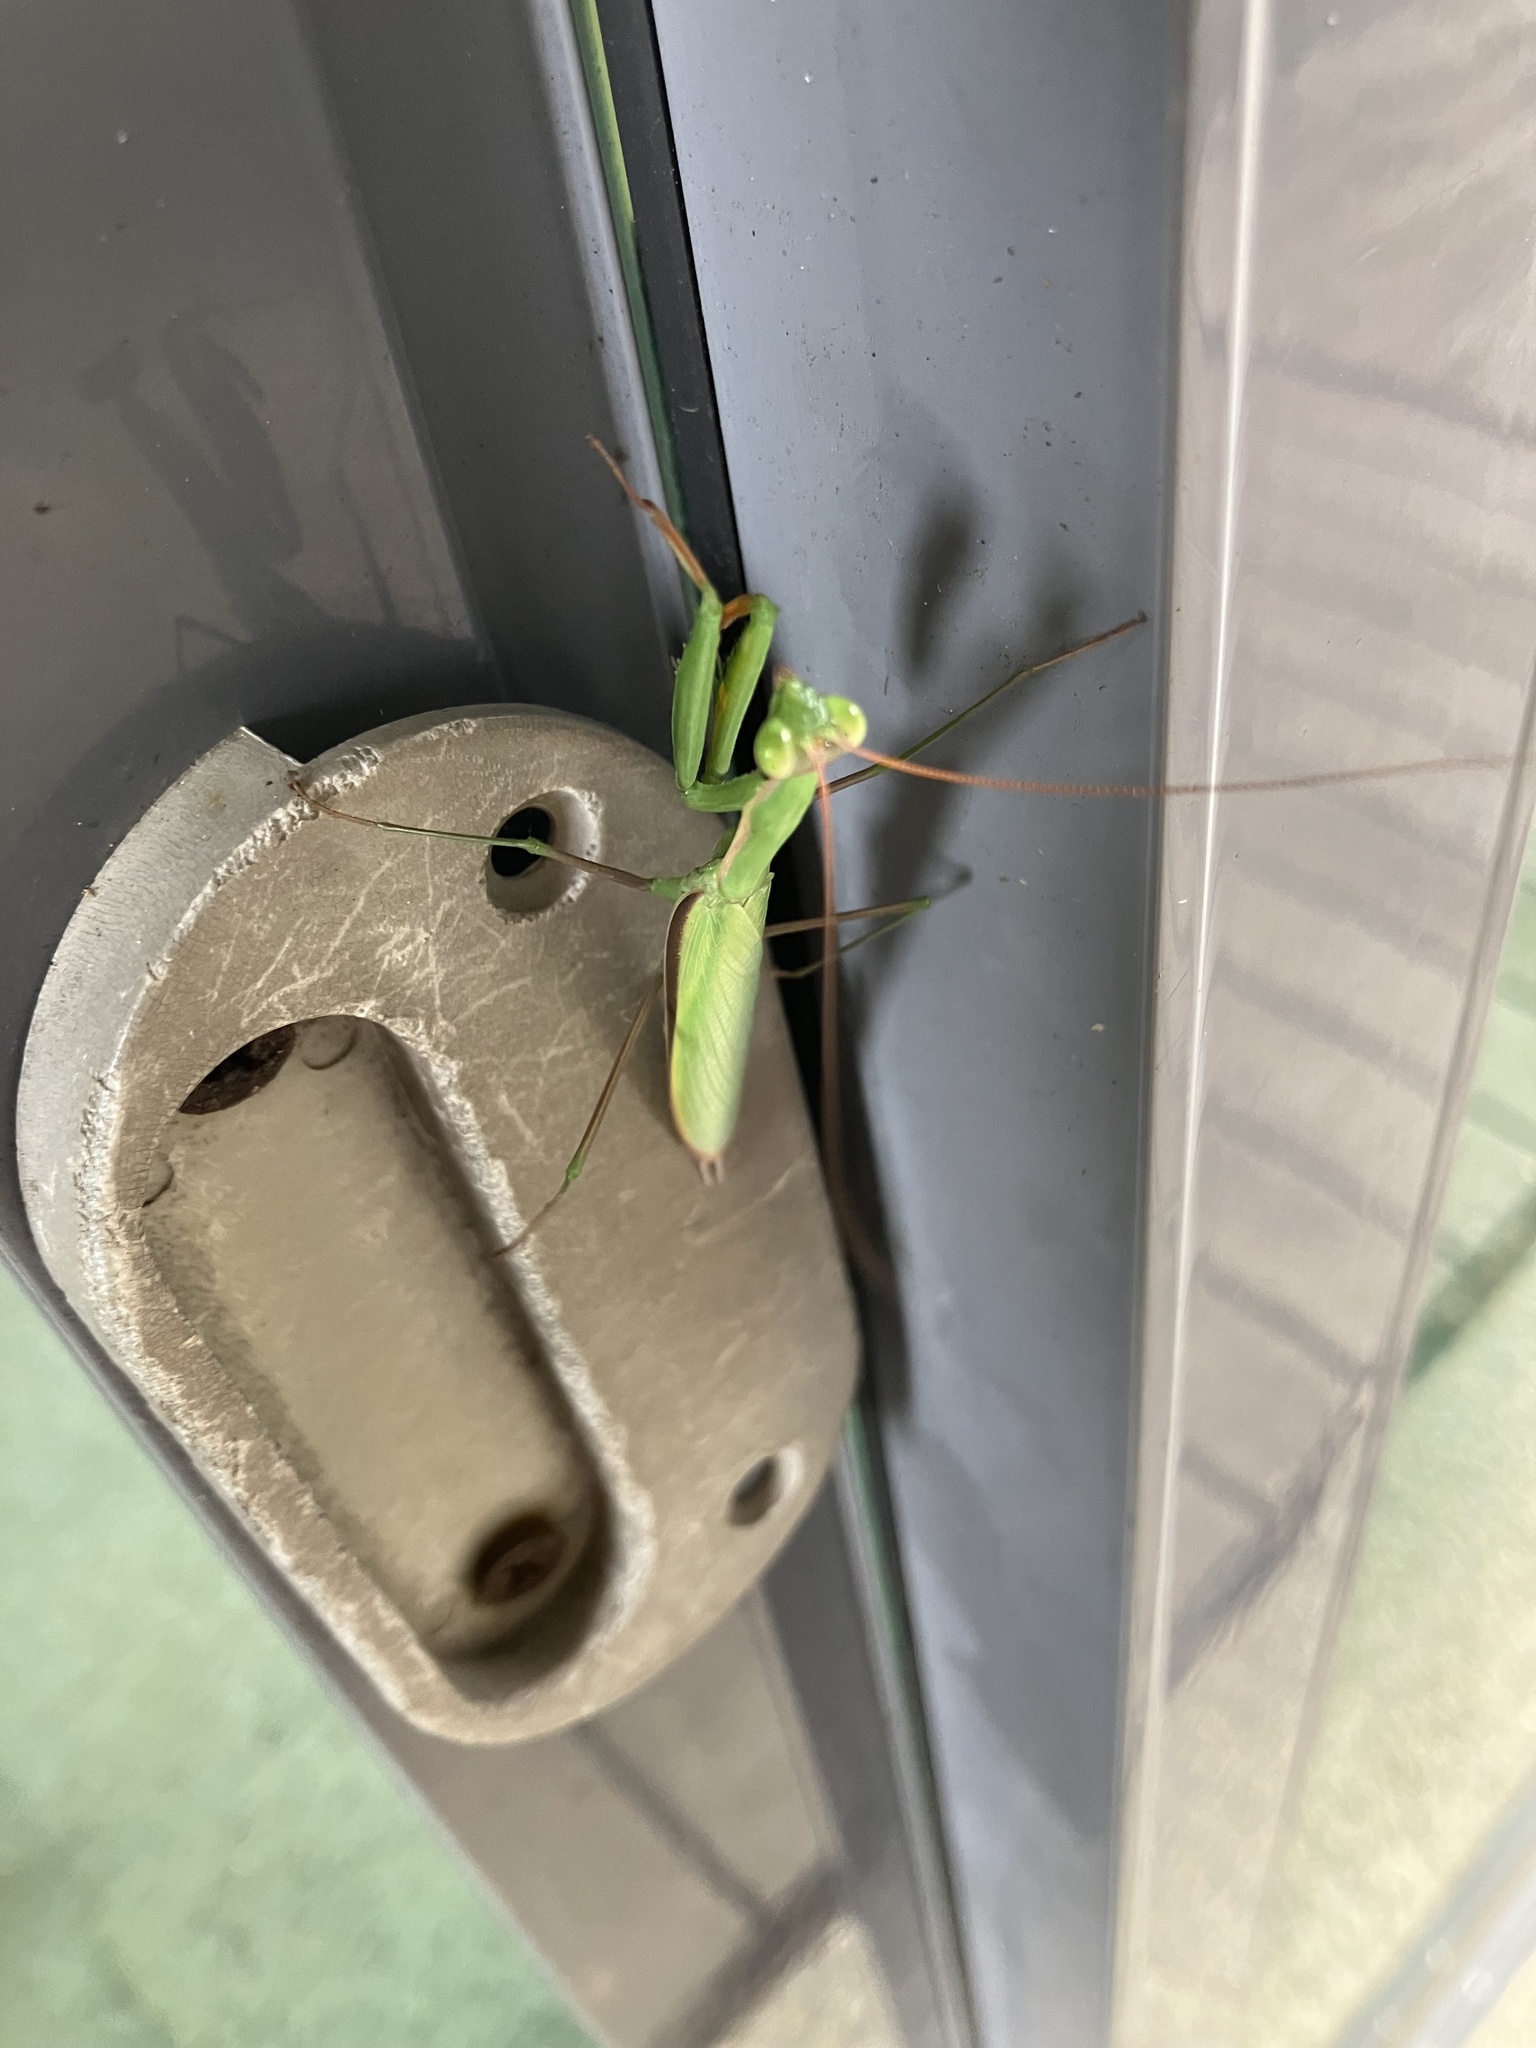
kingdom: Animalia
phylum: Arthropoda
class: Insecta
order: Mantodea
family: Mantidae
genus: Mantis
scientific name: Mantis religiosa
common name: Praying mantis
